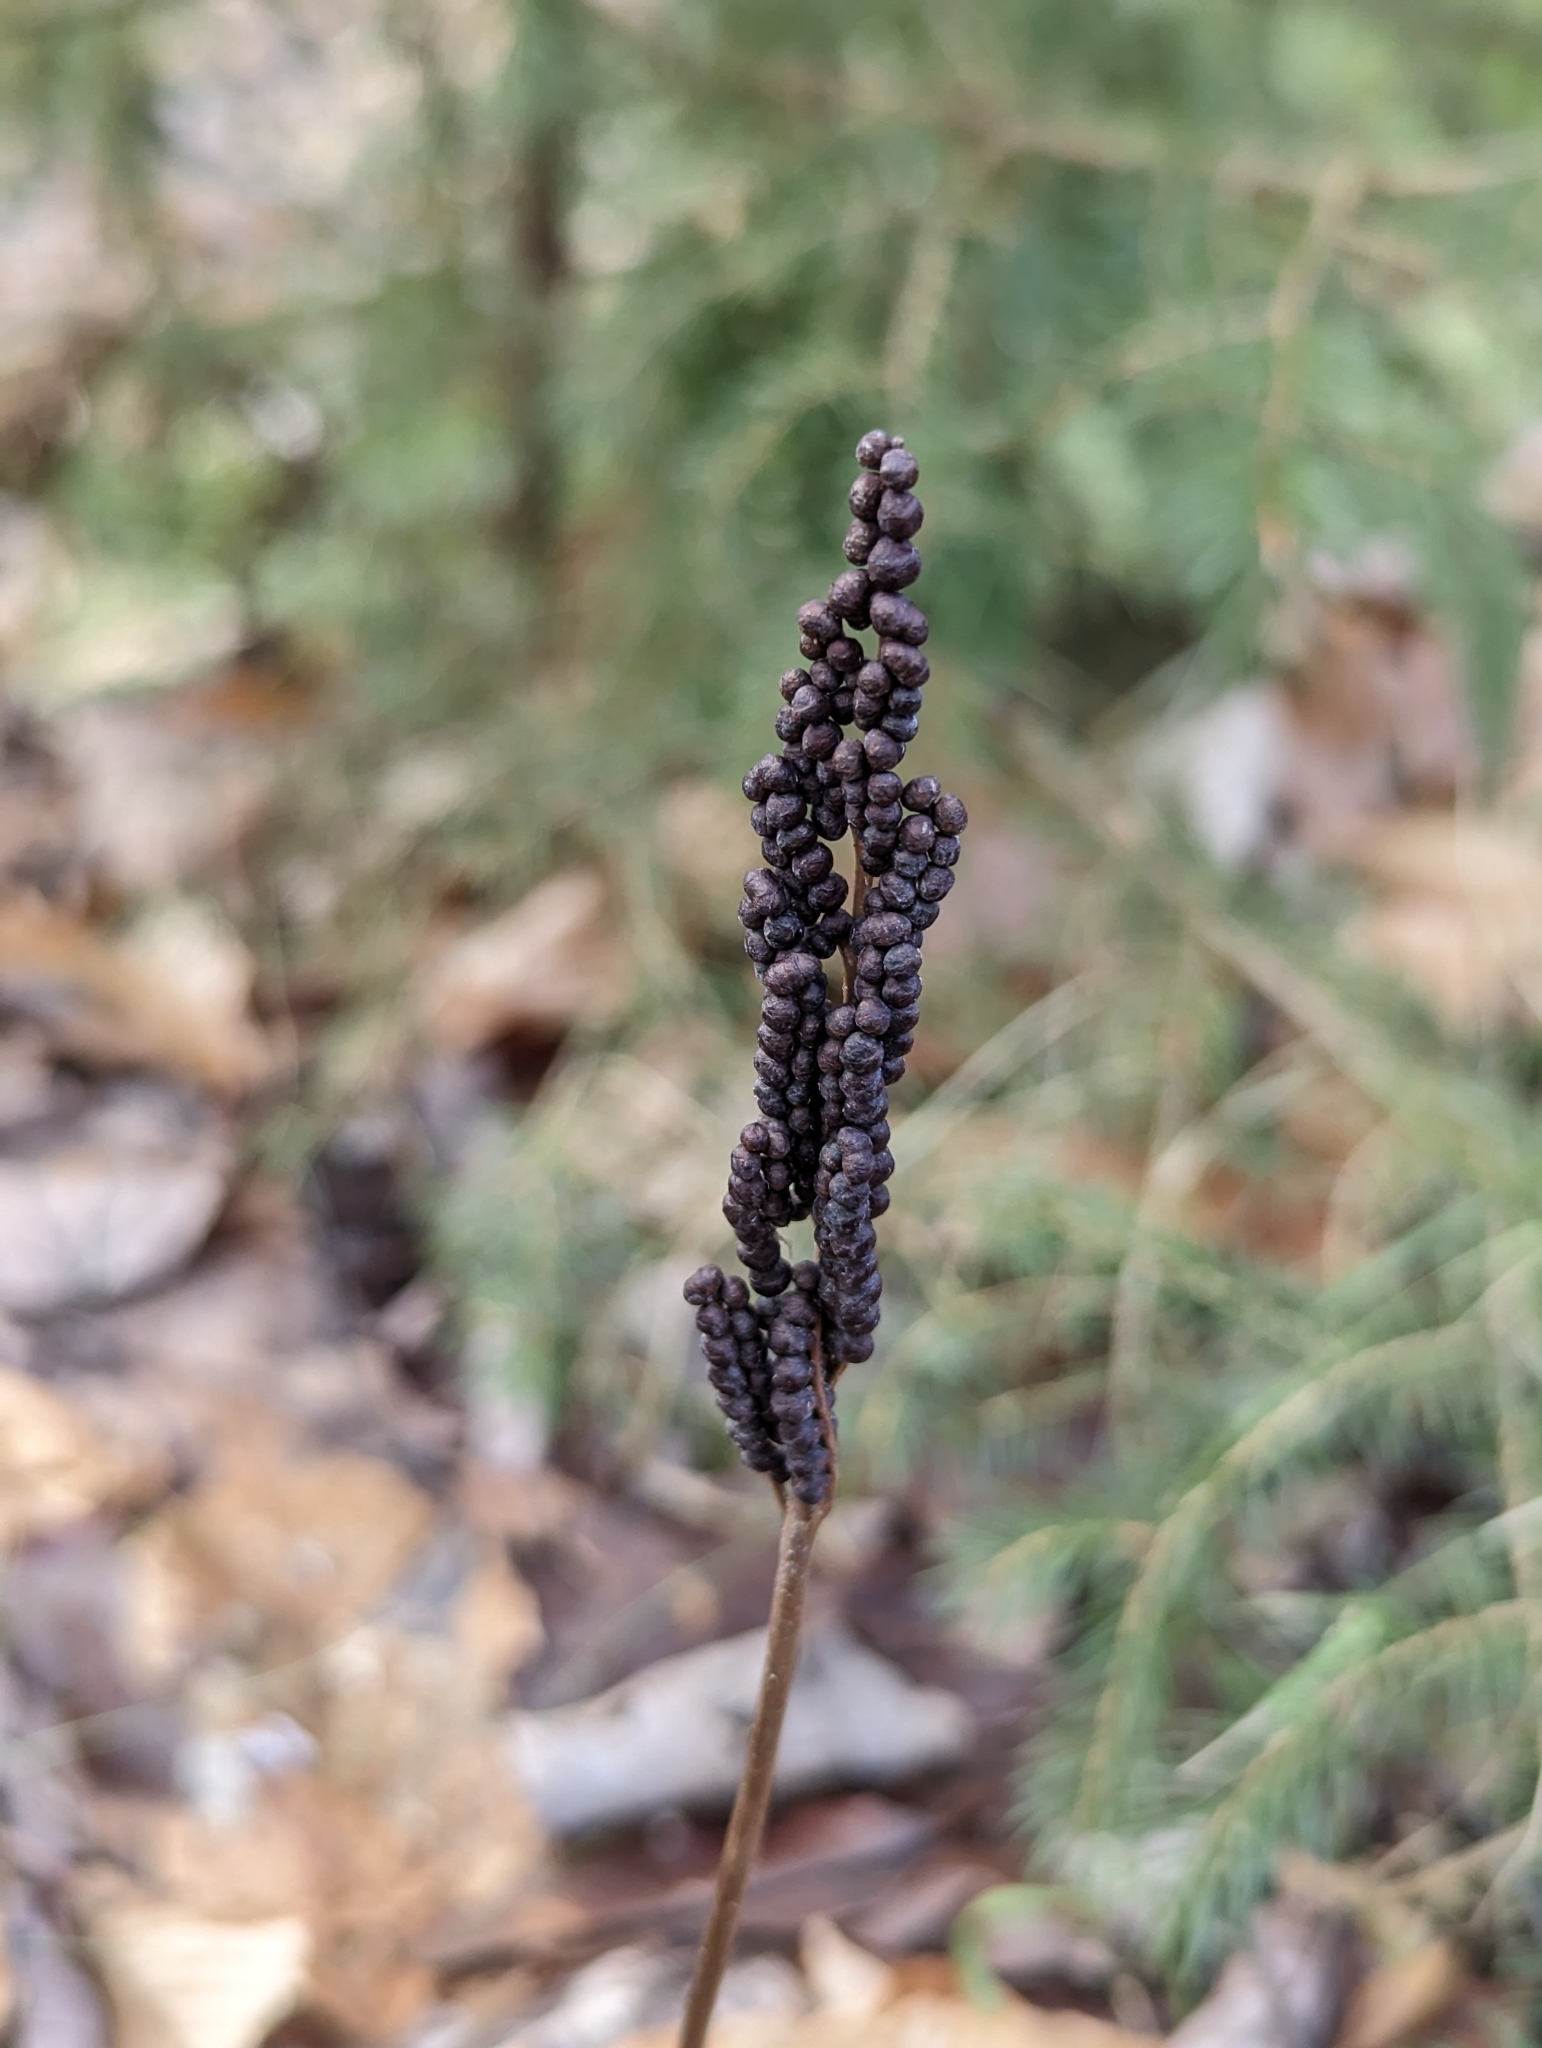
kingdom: Plantae
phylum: Tracheophyta
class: Polypodiopsida
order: Polypodiales
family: Onocleaceae
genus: Onoclea
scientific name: Onoclea sensibilis
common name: Sensitive fern
